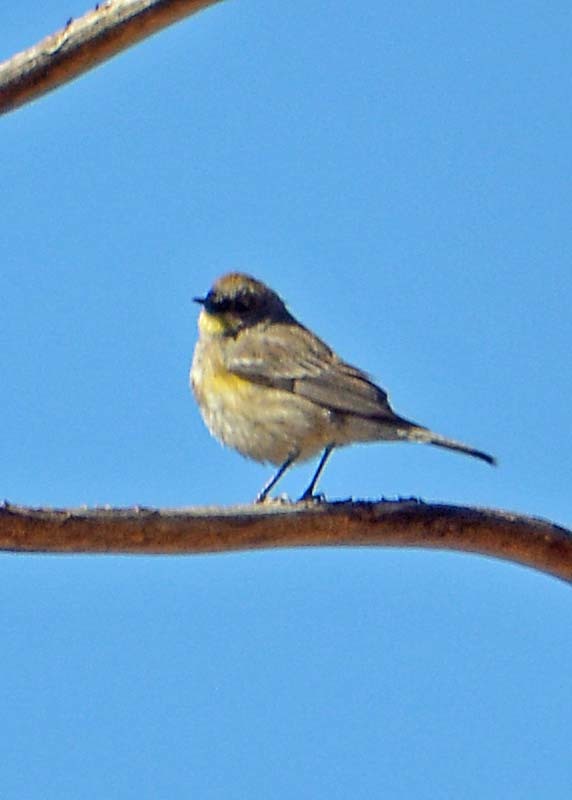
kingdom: Animalia
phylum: Chordata
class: Aves
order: Passeriformes
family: Parulidae
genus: Setophaga
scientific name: Setophaga coronata
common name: Myrtle warbler
